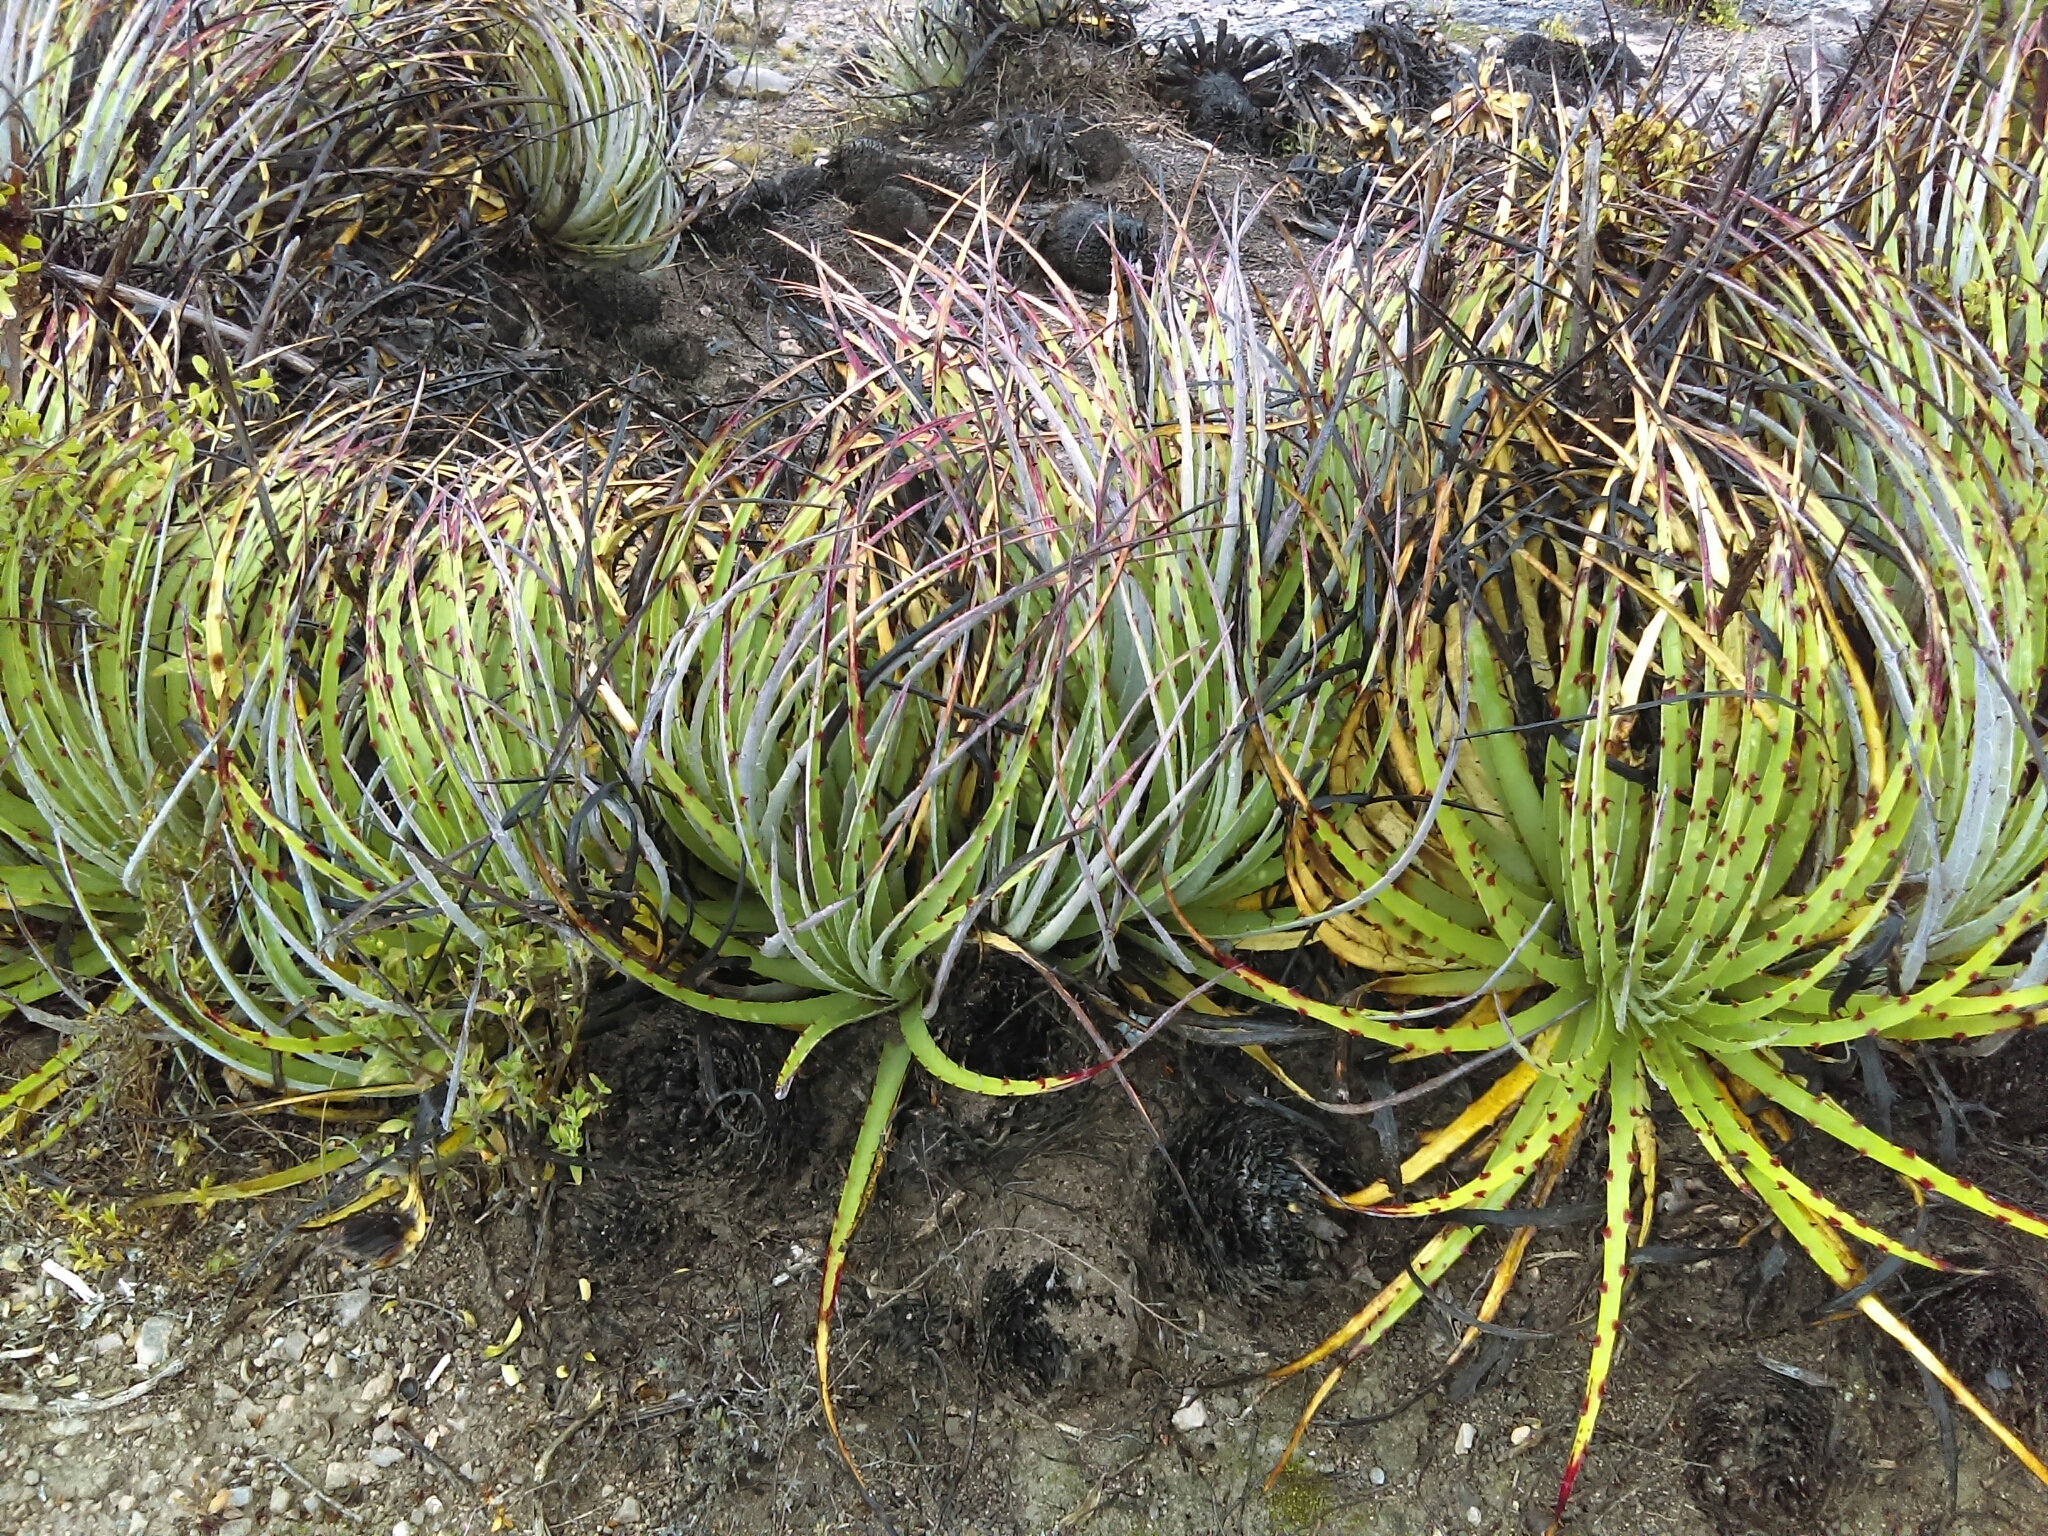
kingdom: Plantae
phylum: Tracheophyta
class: Liliopsida
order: Poales
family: Bromeliaceae
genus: Hechtia
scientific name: Hechtia texensis
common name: False agave
